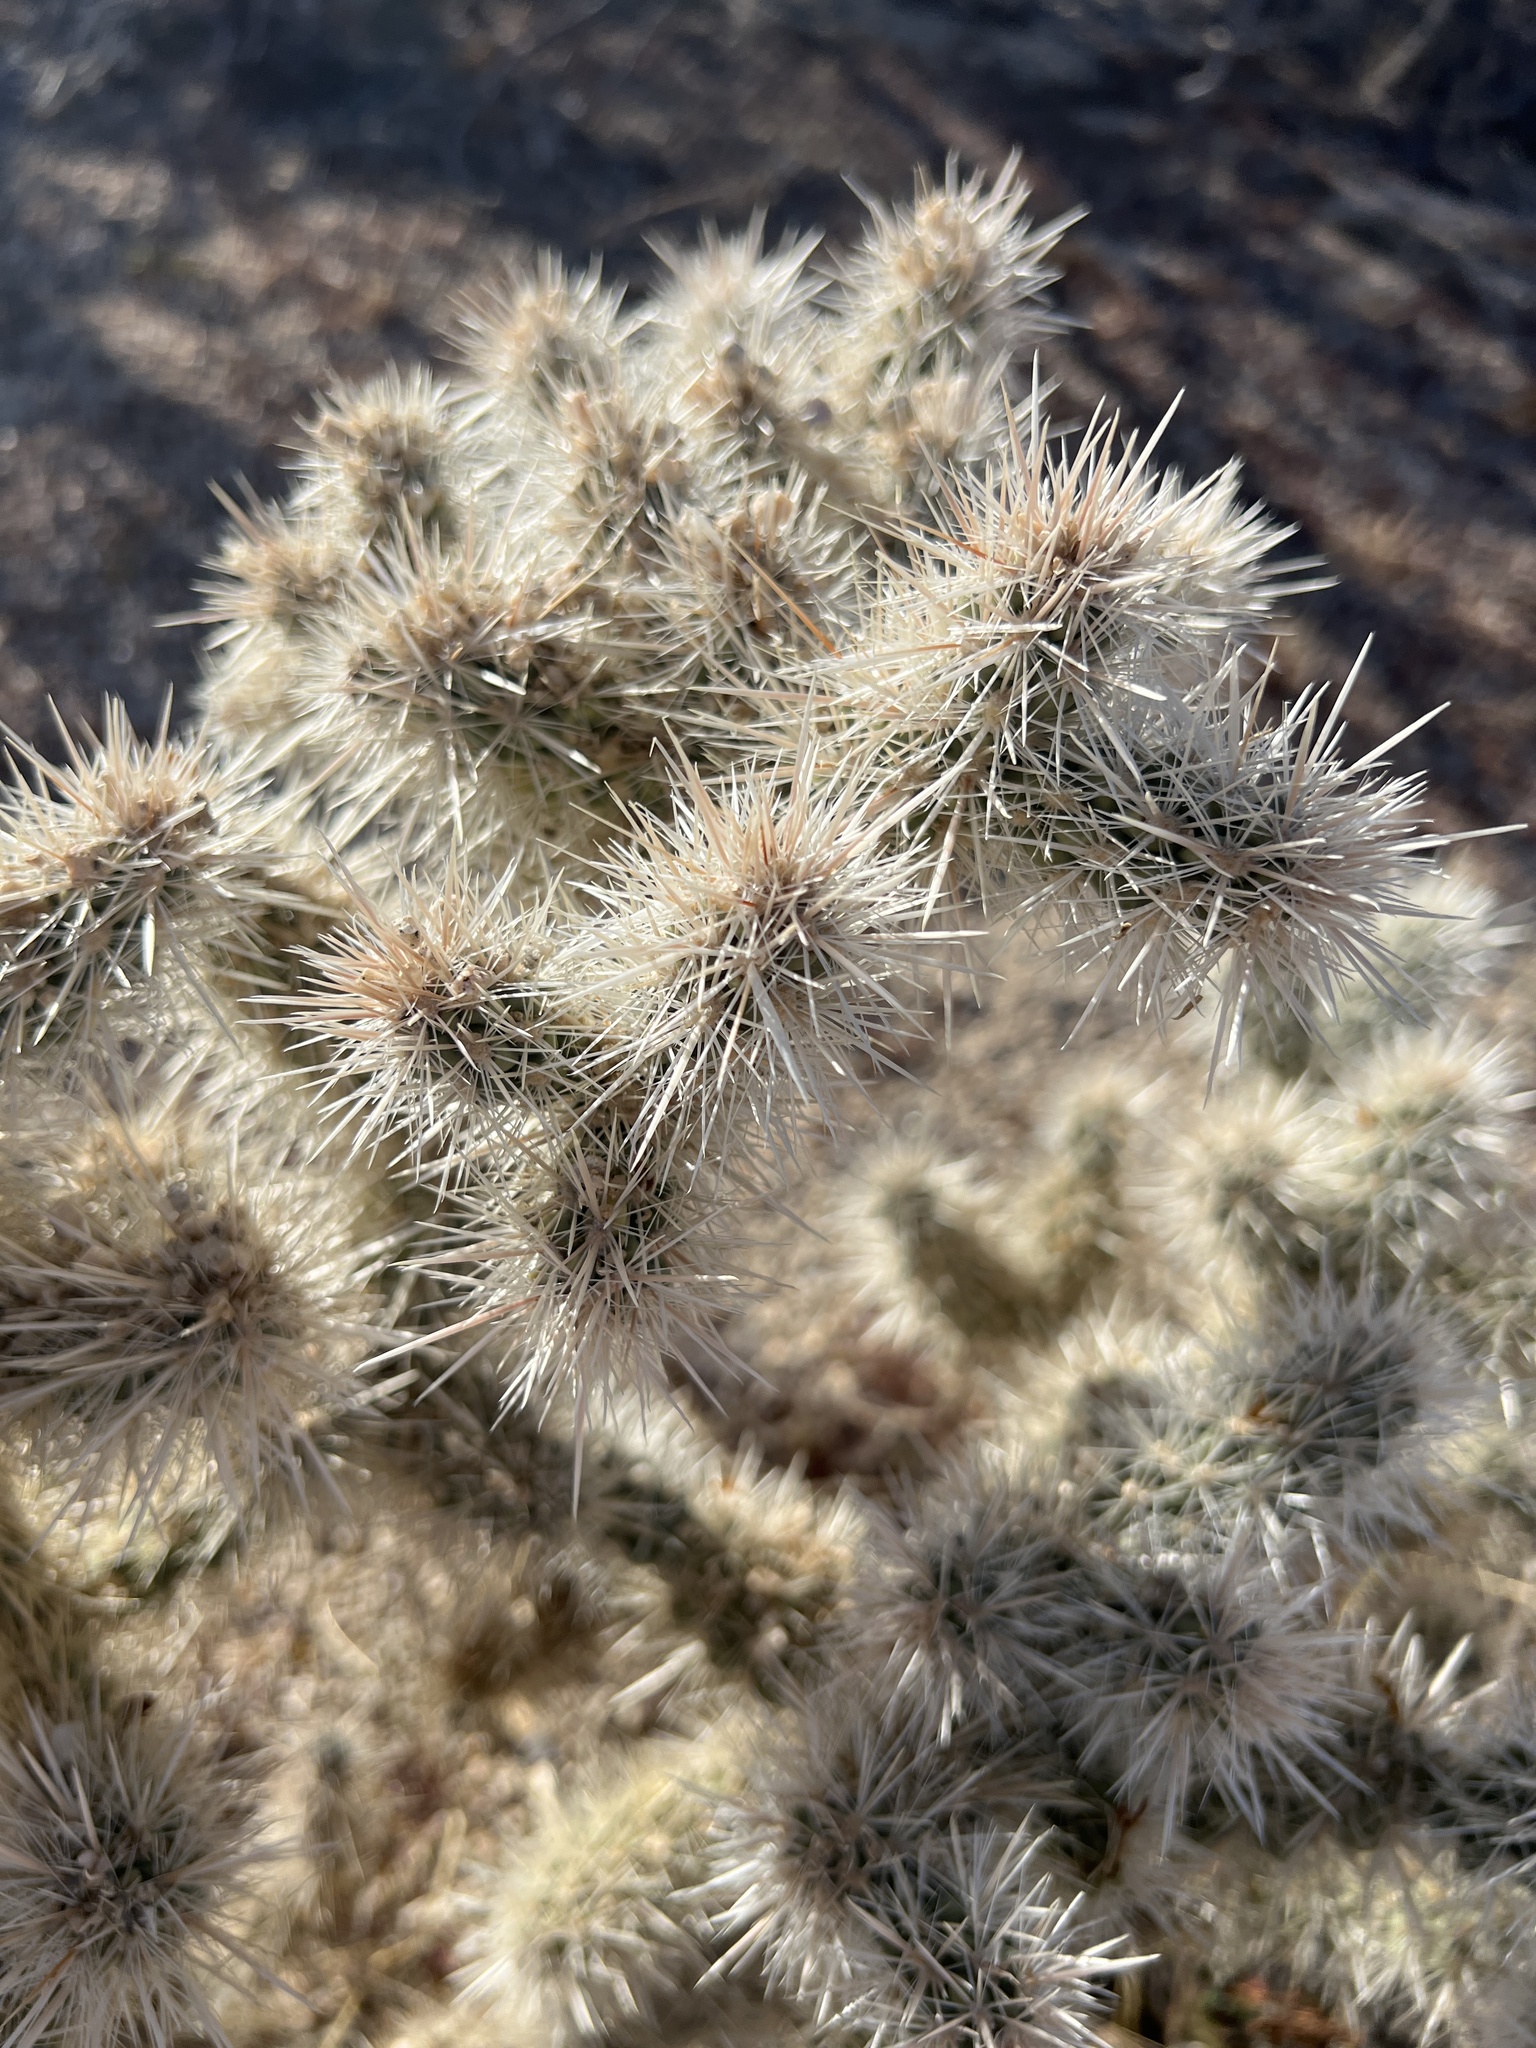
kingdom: Plantae
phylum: Tracheophyta
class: Magnoliopsida
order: Caryophyllales
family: Cactaceae
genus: Cylindropuntia
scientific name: Cylindropuntia echinocarpa
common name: Ground cholla
